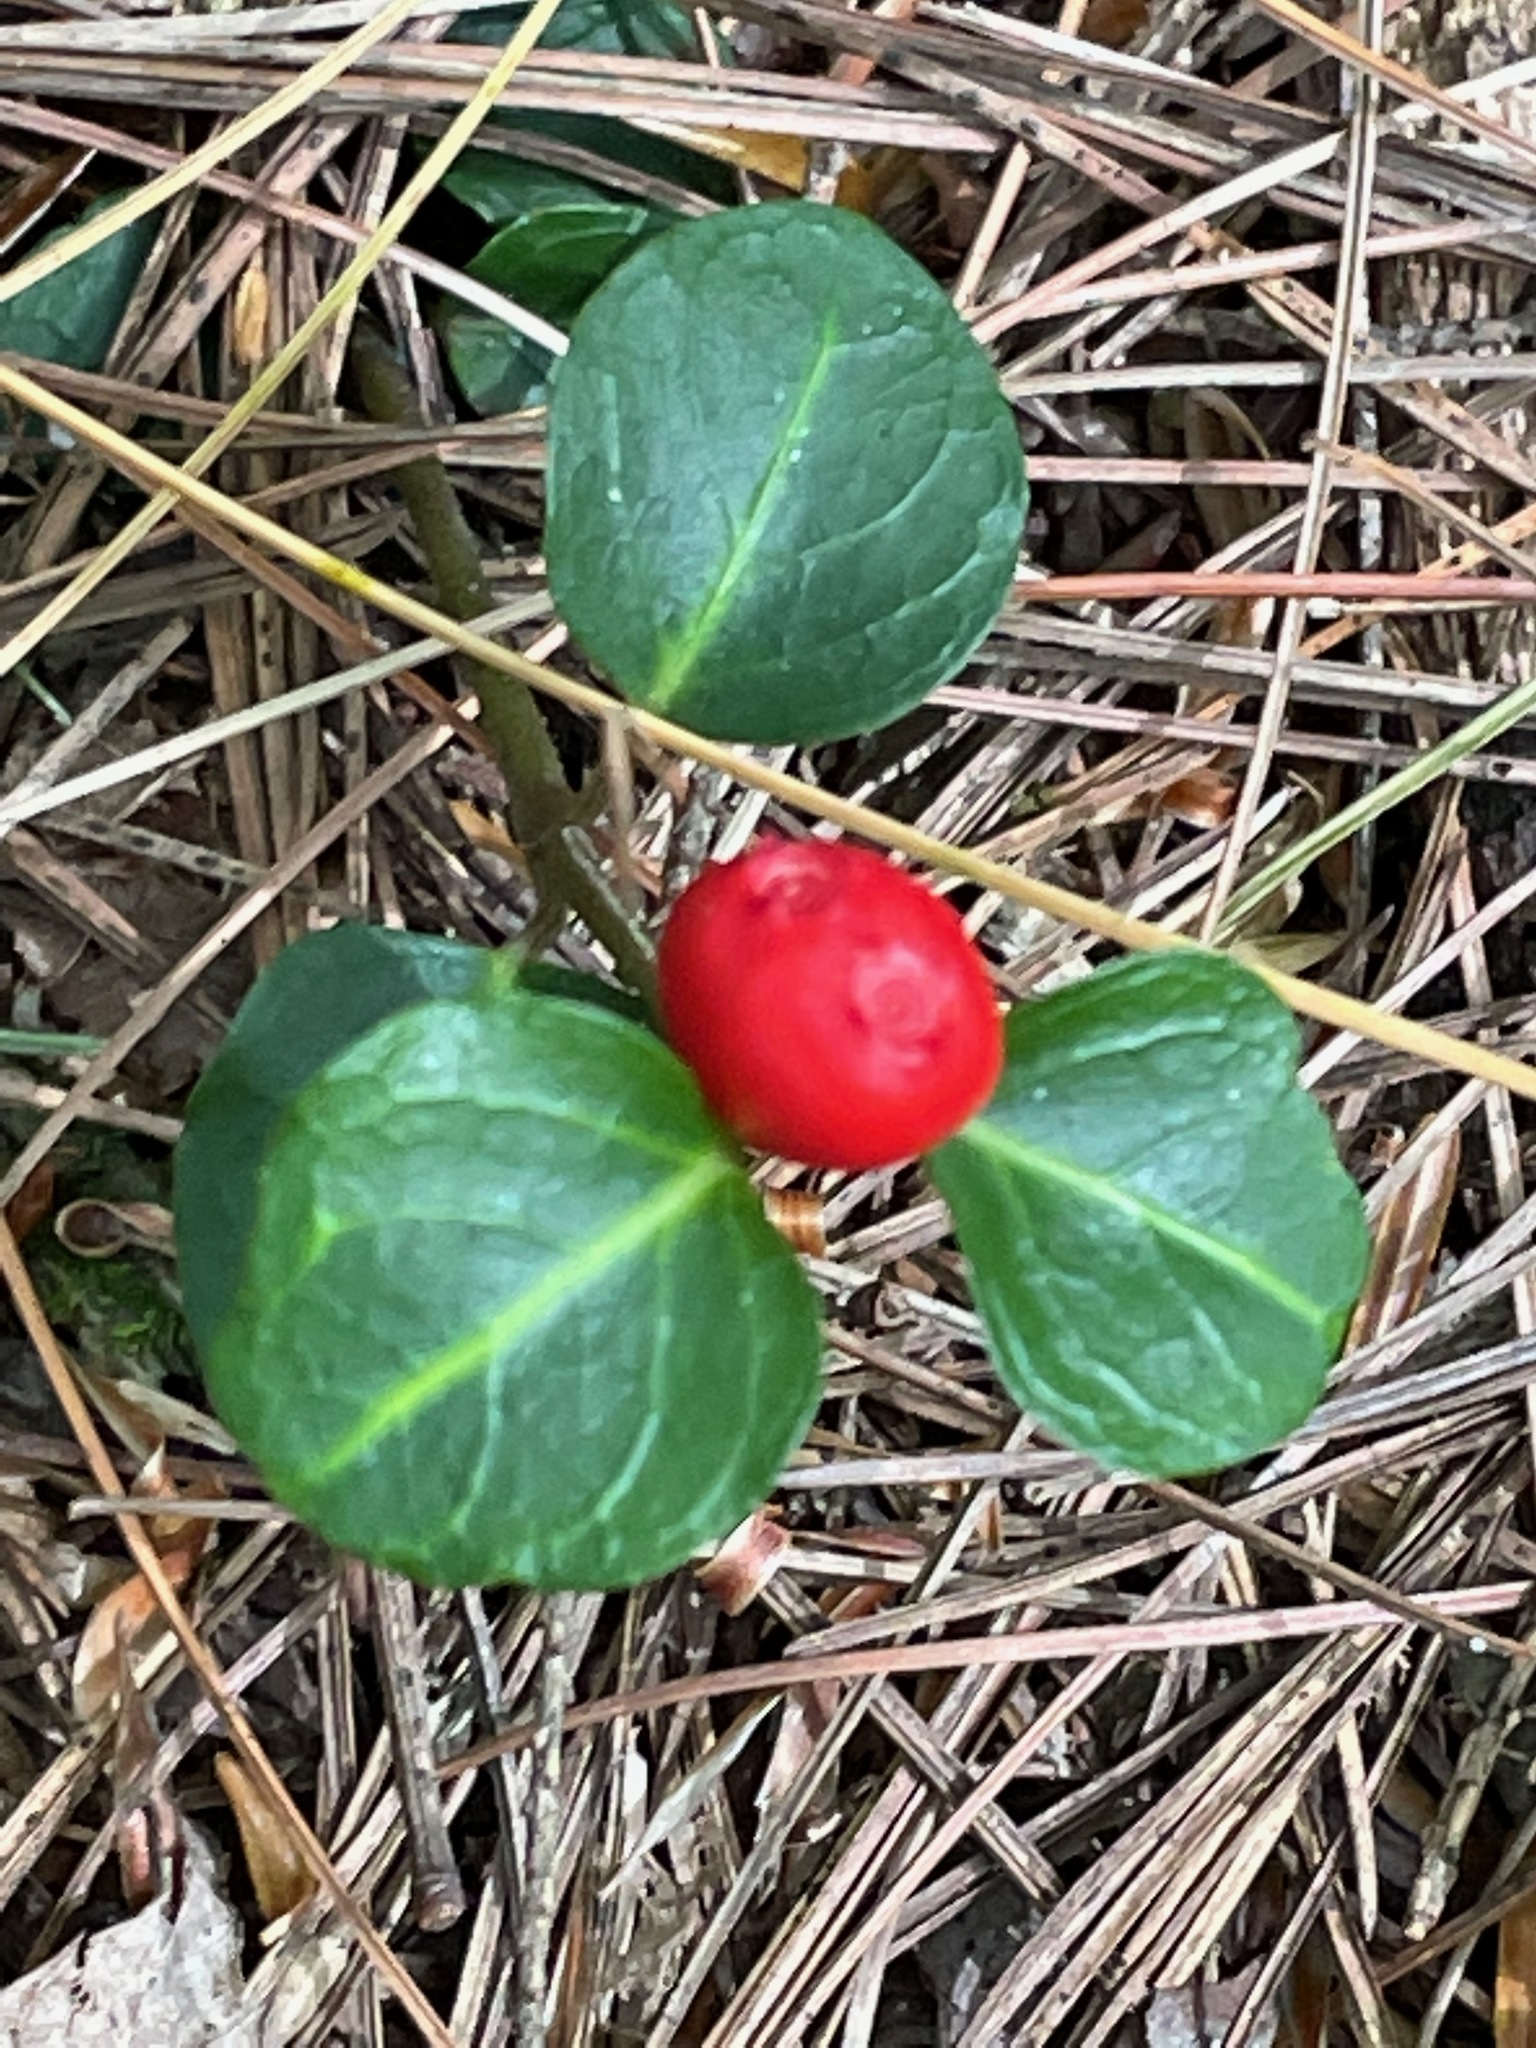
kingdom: Plantae
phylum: Tracheophyta
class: Magnoliopsida
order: Gentianales
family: Rubiaceae
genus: Mitchella
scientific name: Mitchella repens
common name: Partridge-berry
